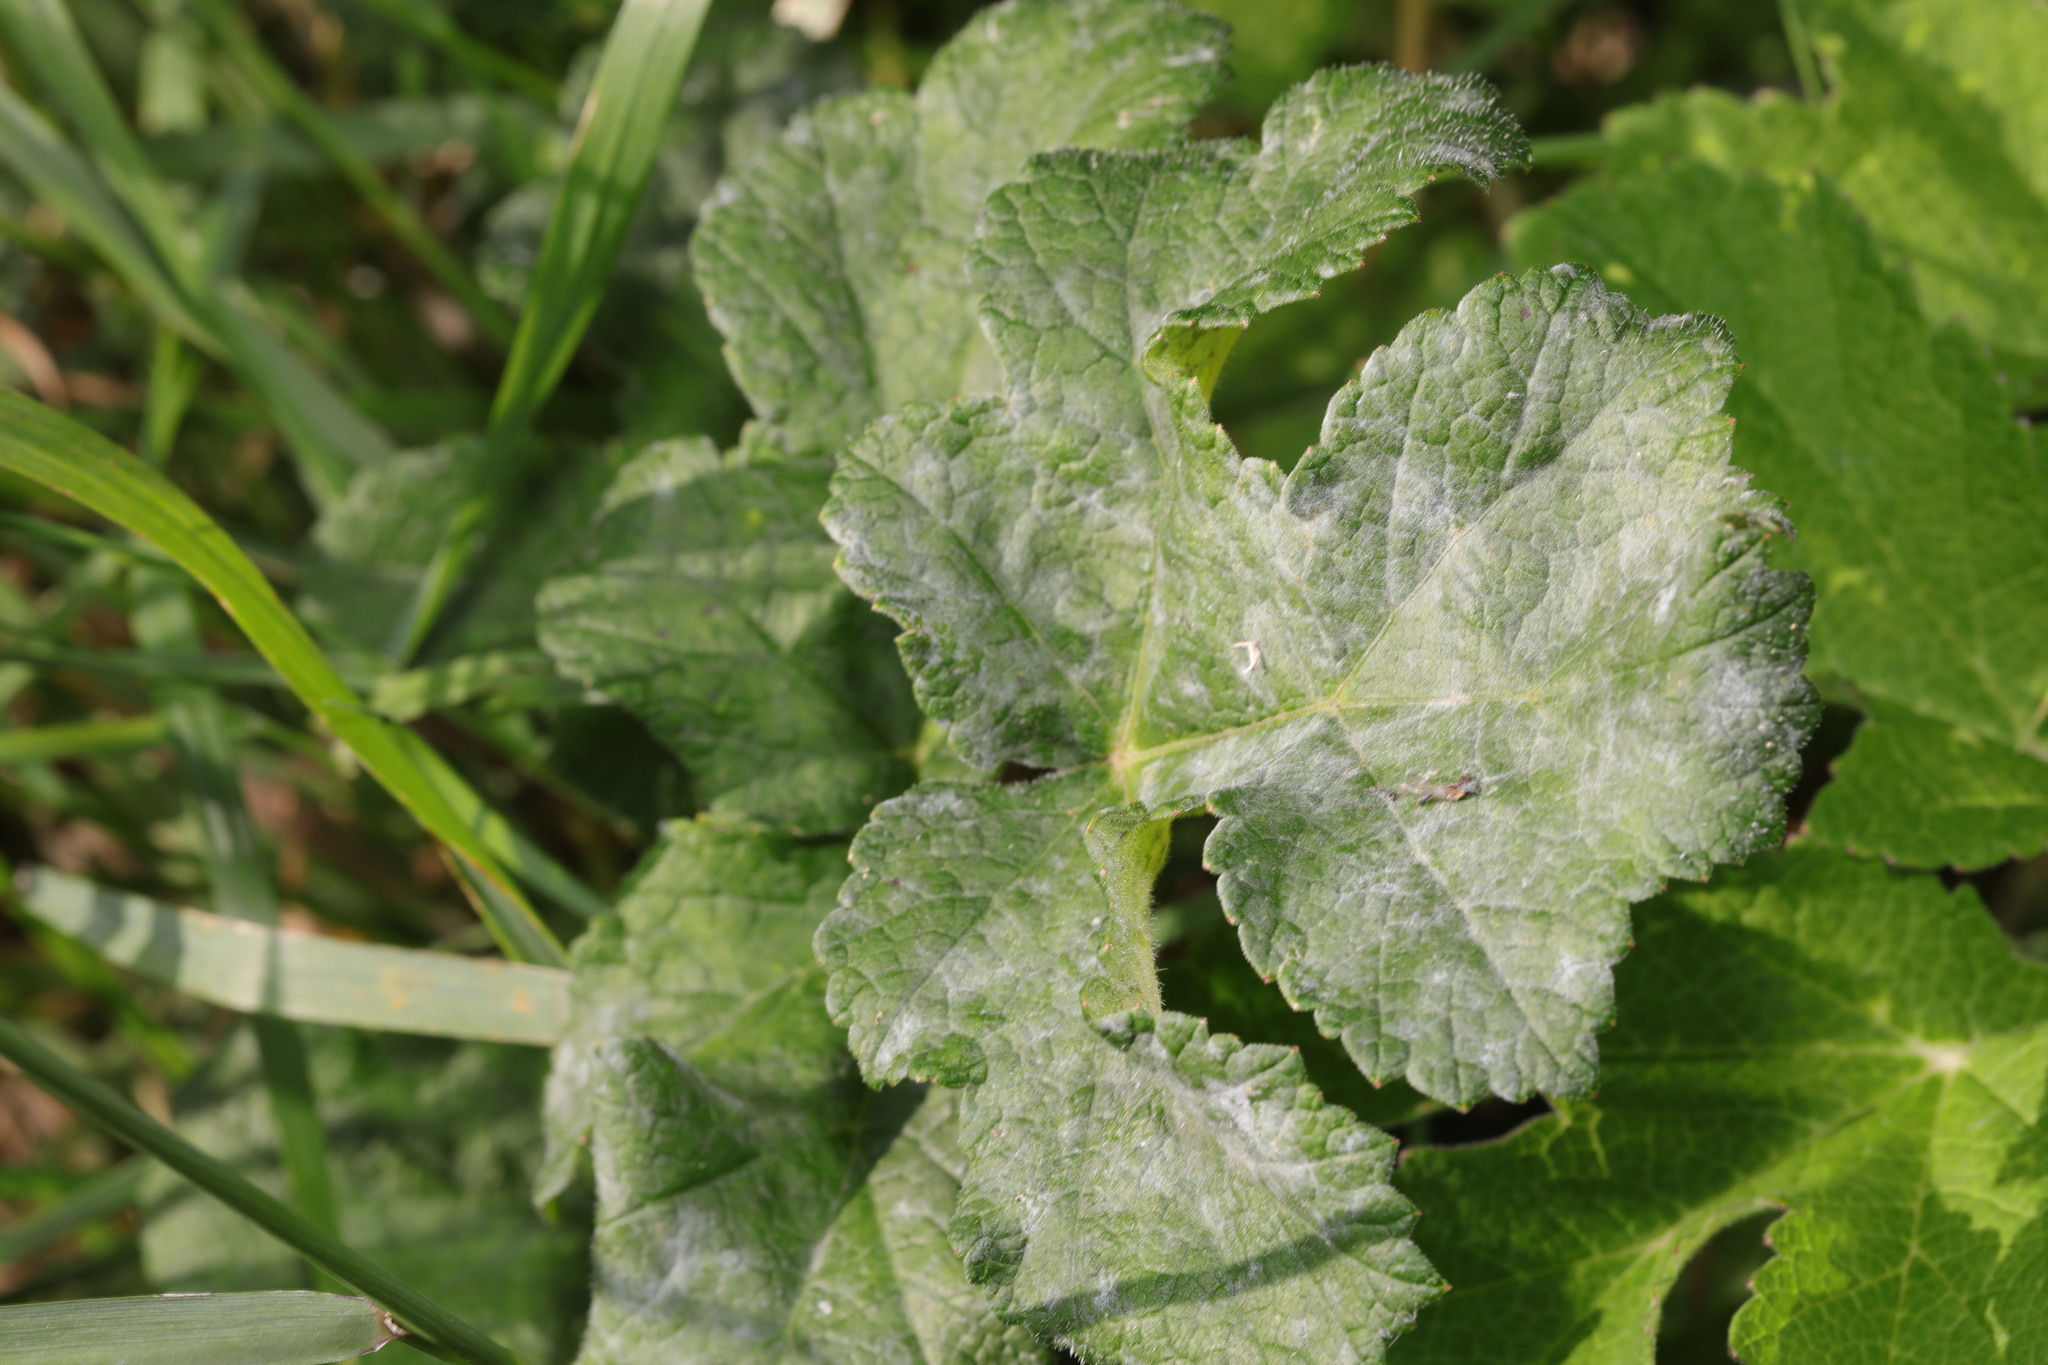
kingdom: Fungi
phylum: Ascomycota
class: Leotiomycetes
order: Helotiales
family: Erysiphaceae
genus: Erysiphe
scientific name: Erysiphe heraclei
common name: Umbellifer mildew
